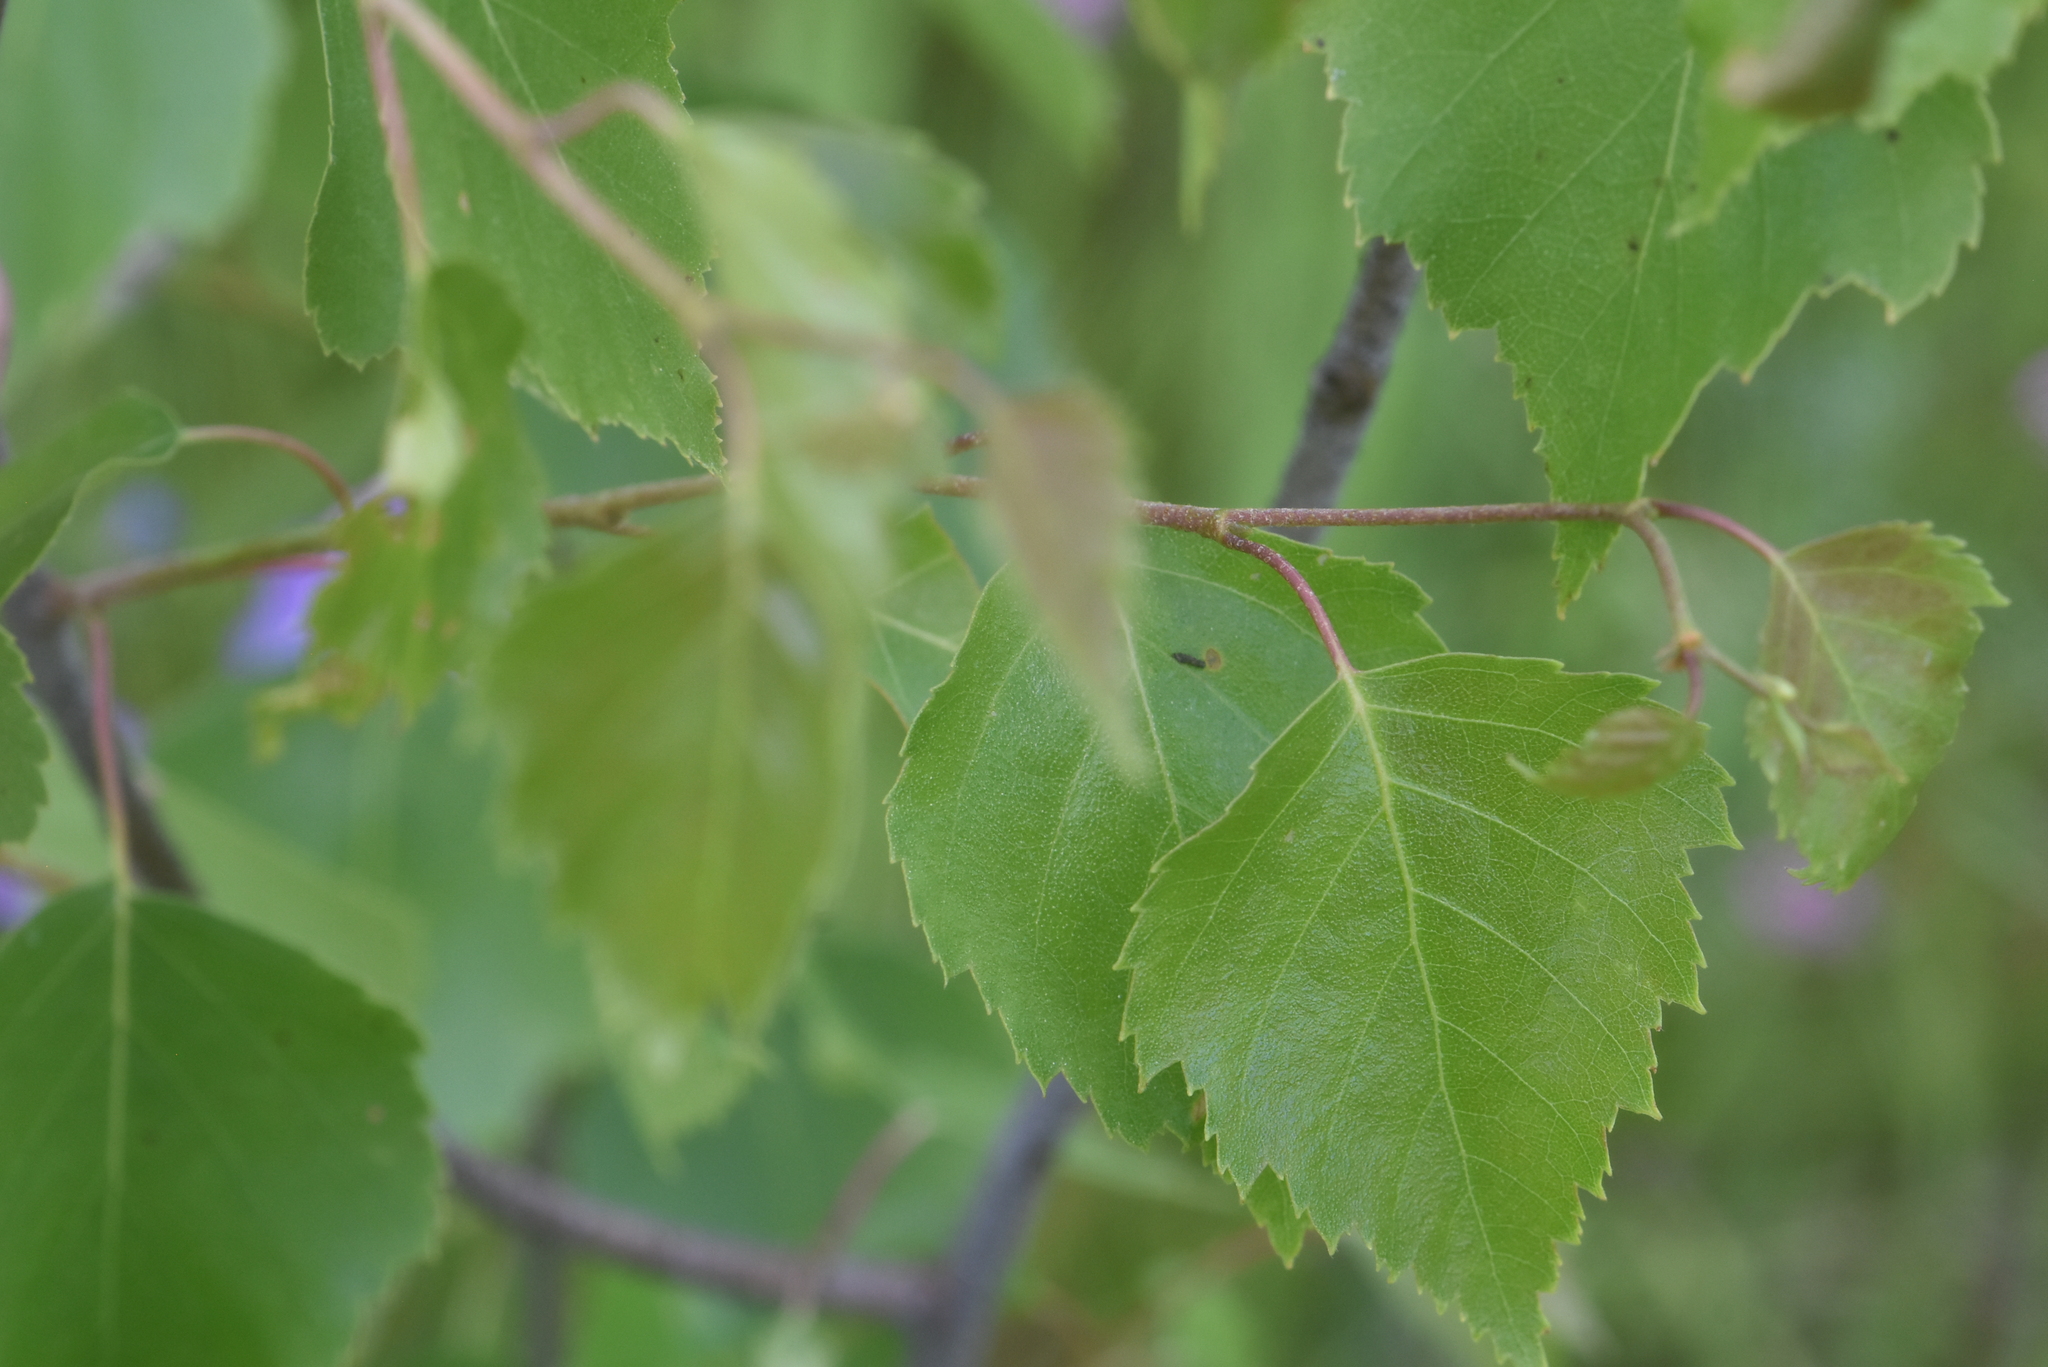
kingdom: Plantae
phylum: Tracheophyta
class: Magnoliopsida
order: Fagales
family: Betulaceae
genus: Betula
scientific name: Betula pendula
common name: Silver birch
